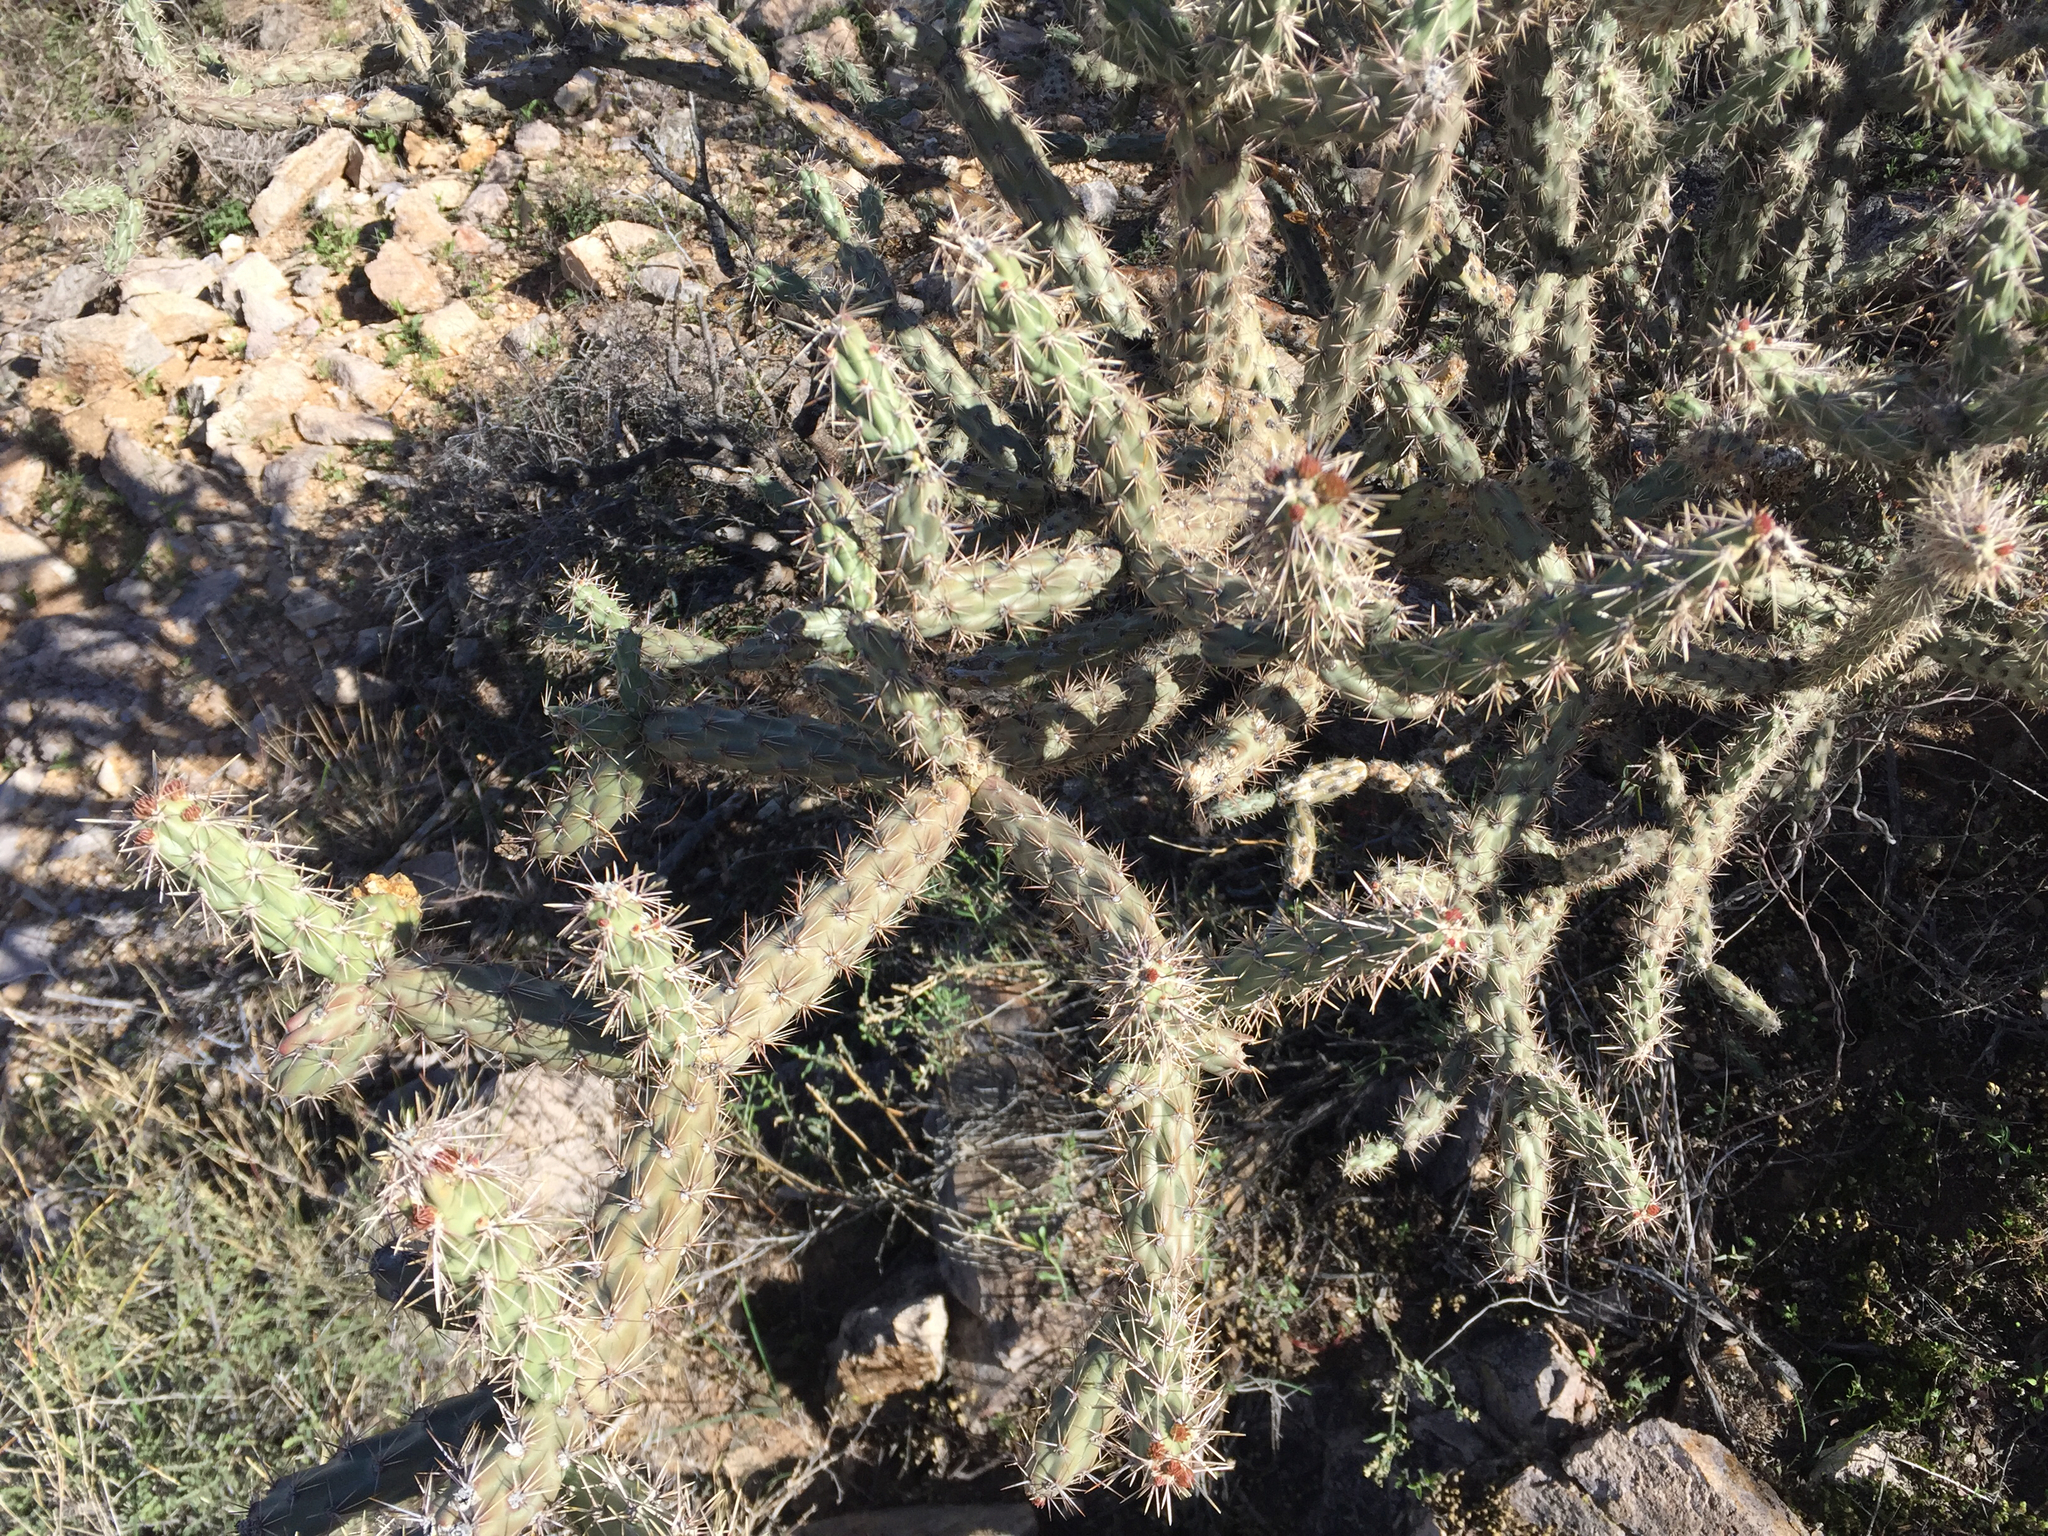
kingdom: Plantae
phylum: Tracheophyta
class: Magnoliopsida
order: Caryophyllales
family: Cactaceae
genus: Cylindropuntia
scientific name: Cylindropuntia acanthocarpa
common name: Buckhorn cholla
